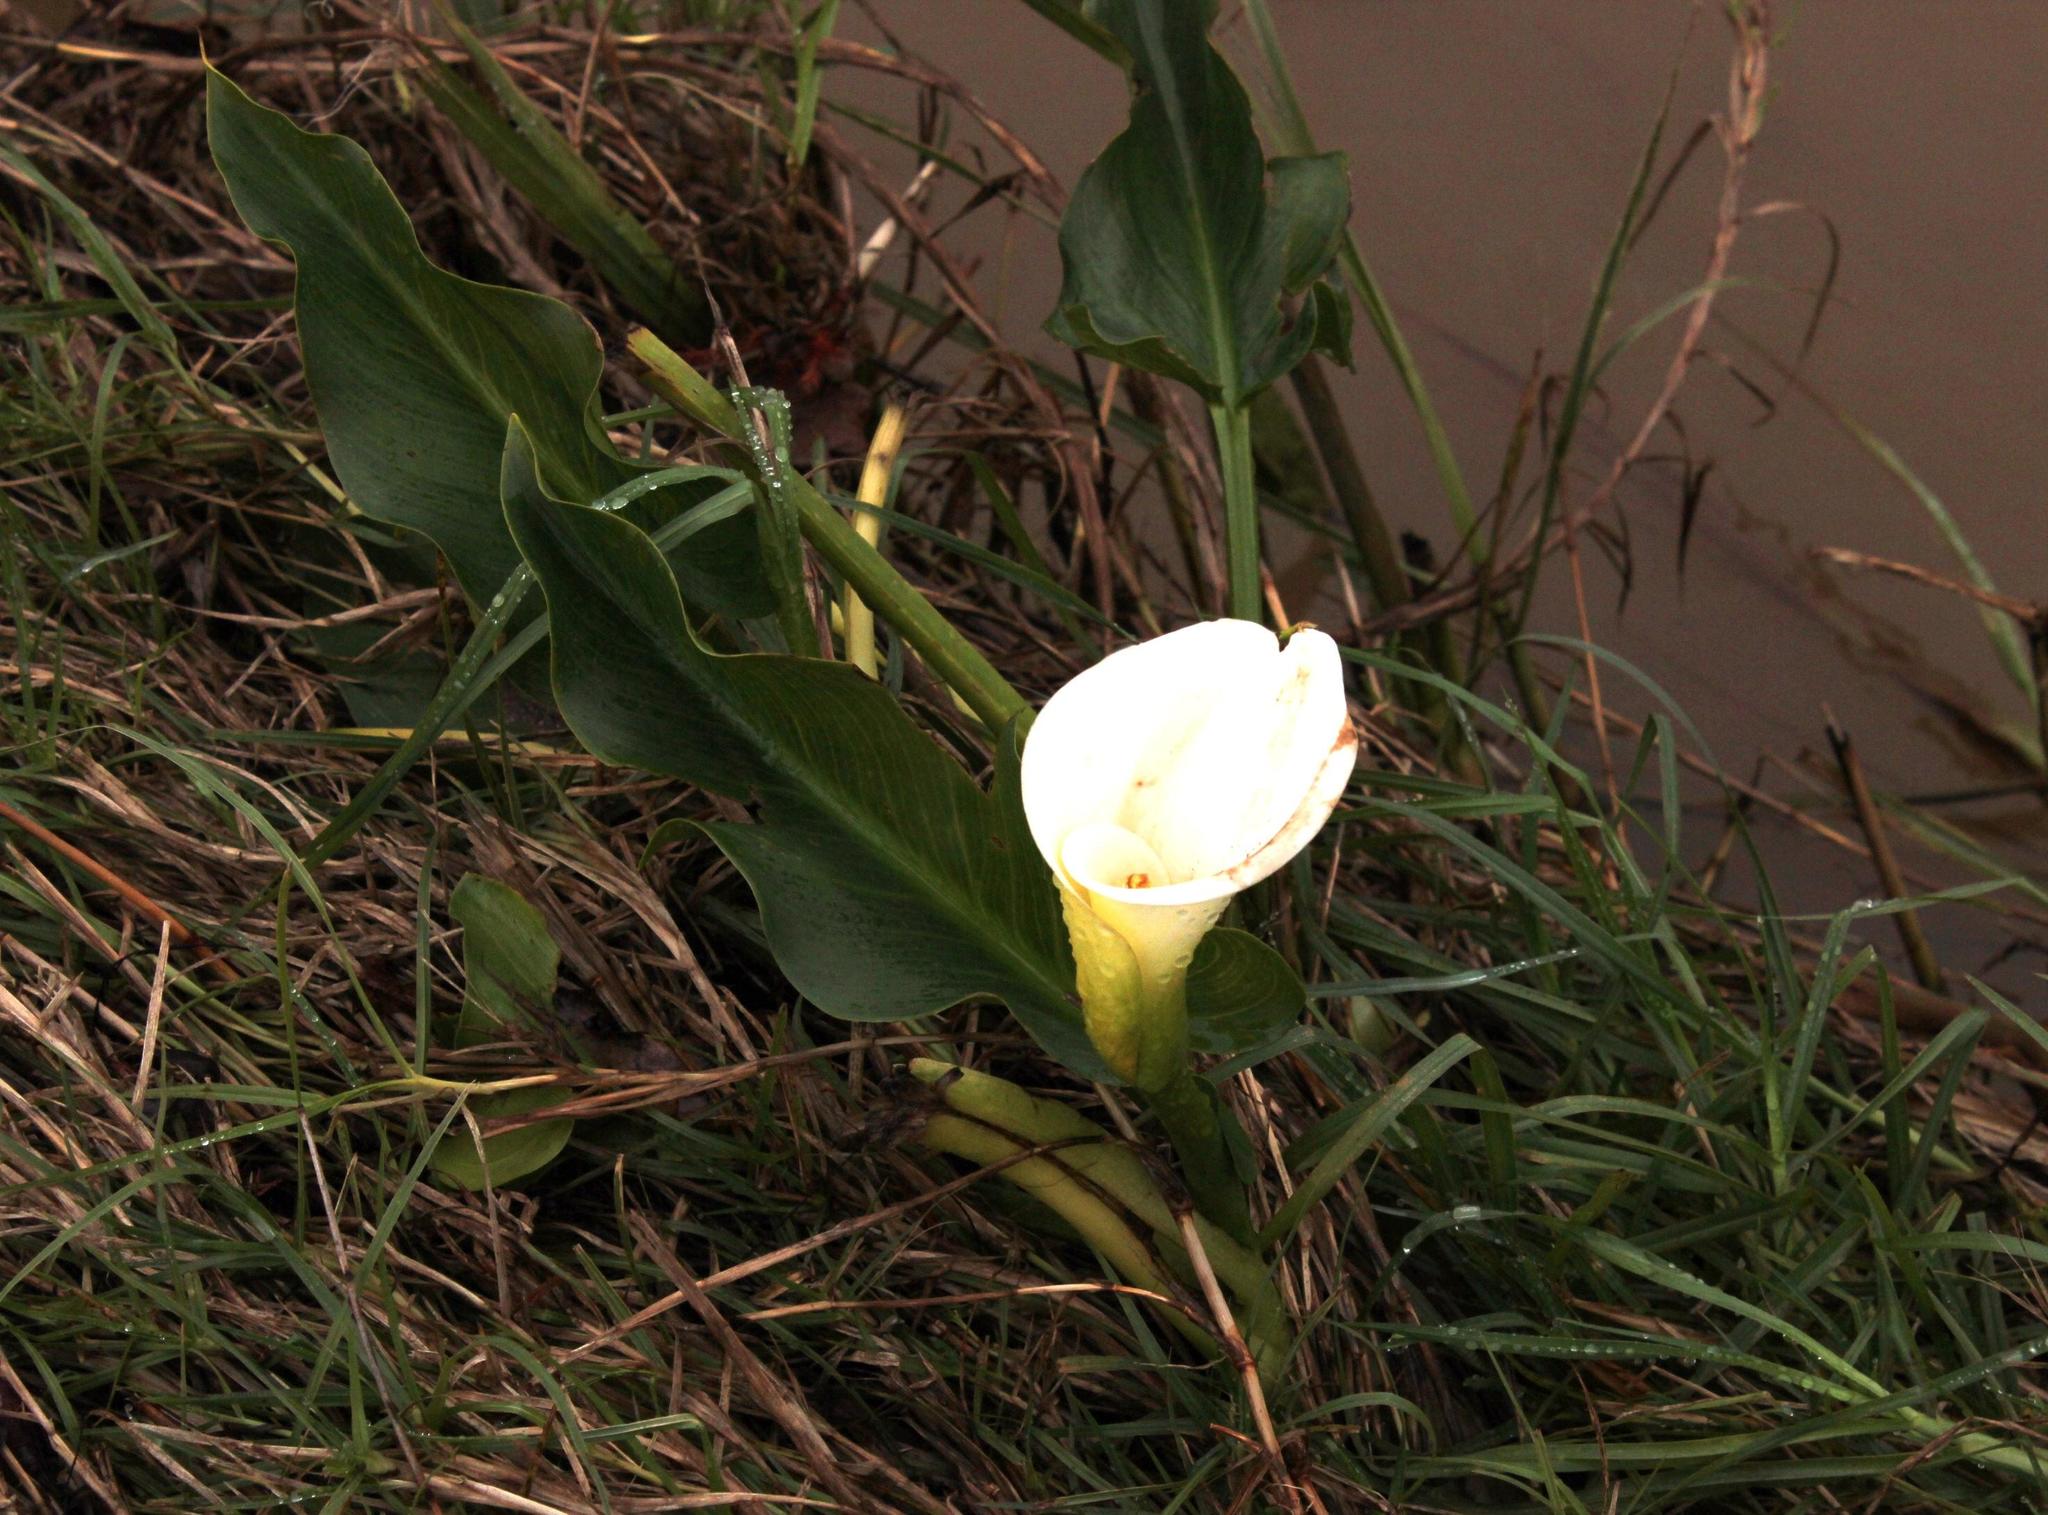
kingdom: Plantae
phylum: Tracheophyta
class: Liliopsida
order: Alismatales
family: Araceae
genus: Zantedeschia
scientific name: Zantedeschia aethiopica
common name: Altar-lily
